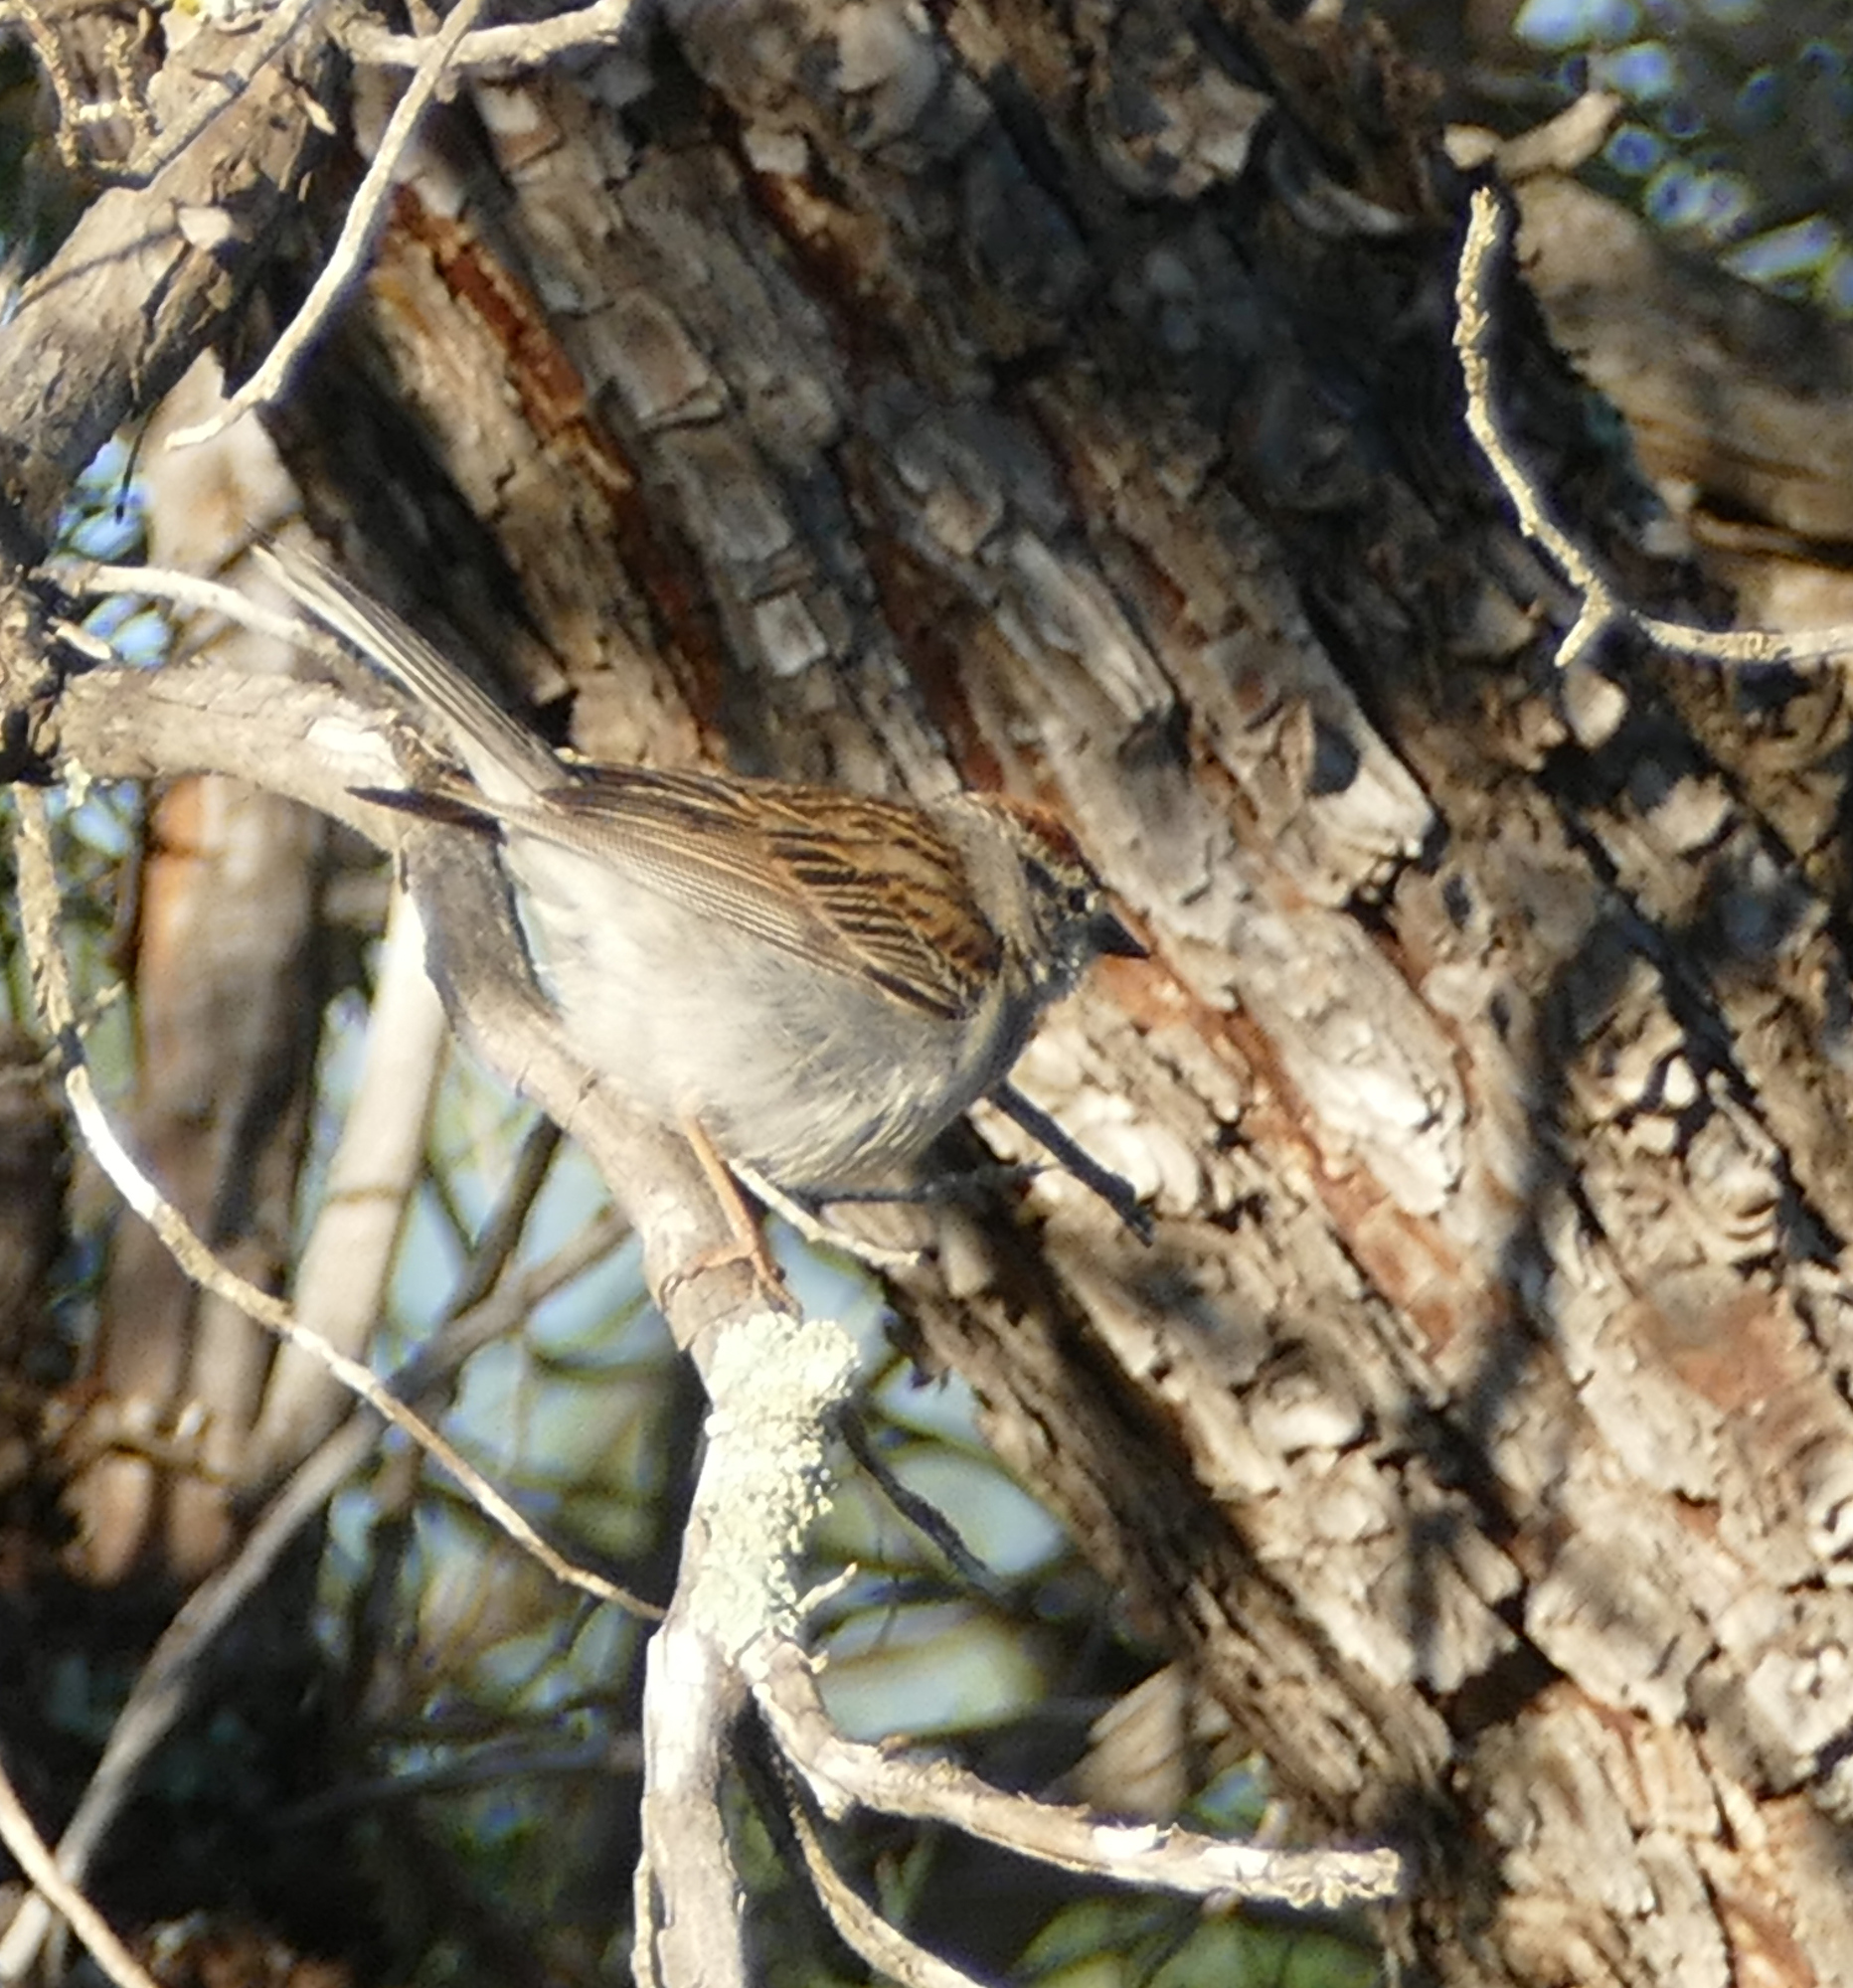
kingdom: Animalia
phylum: Chordata
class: Aves
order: Passeriformes
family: Passerellidae
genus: Spizella
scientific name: Spizella passerina
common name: Chipping sparrow
